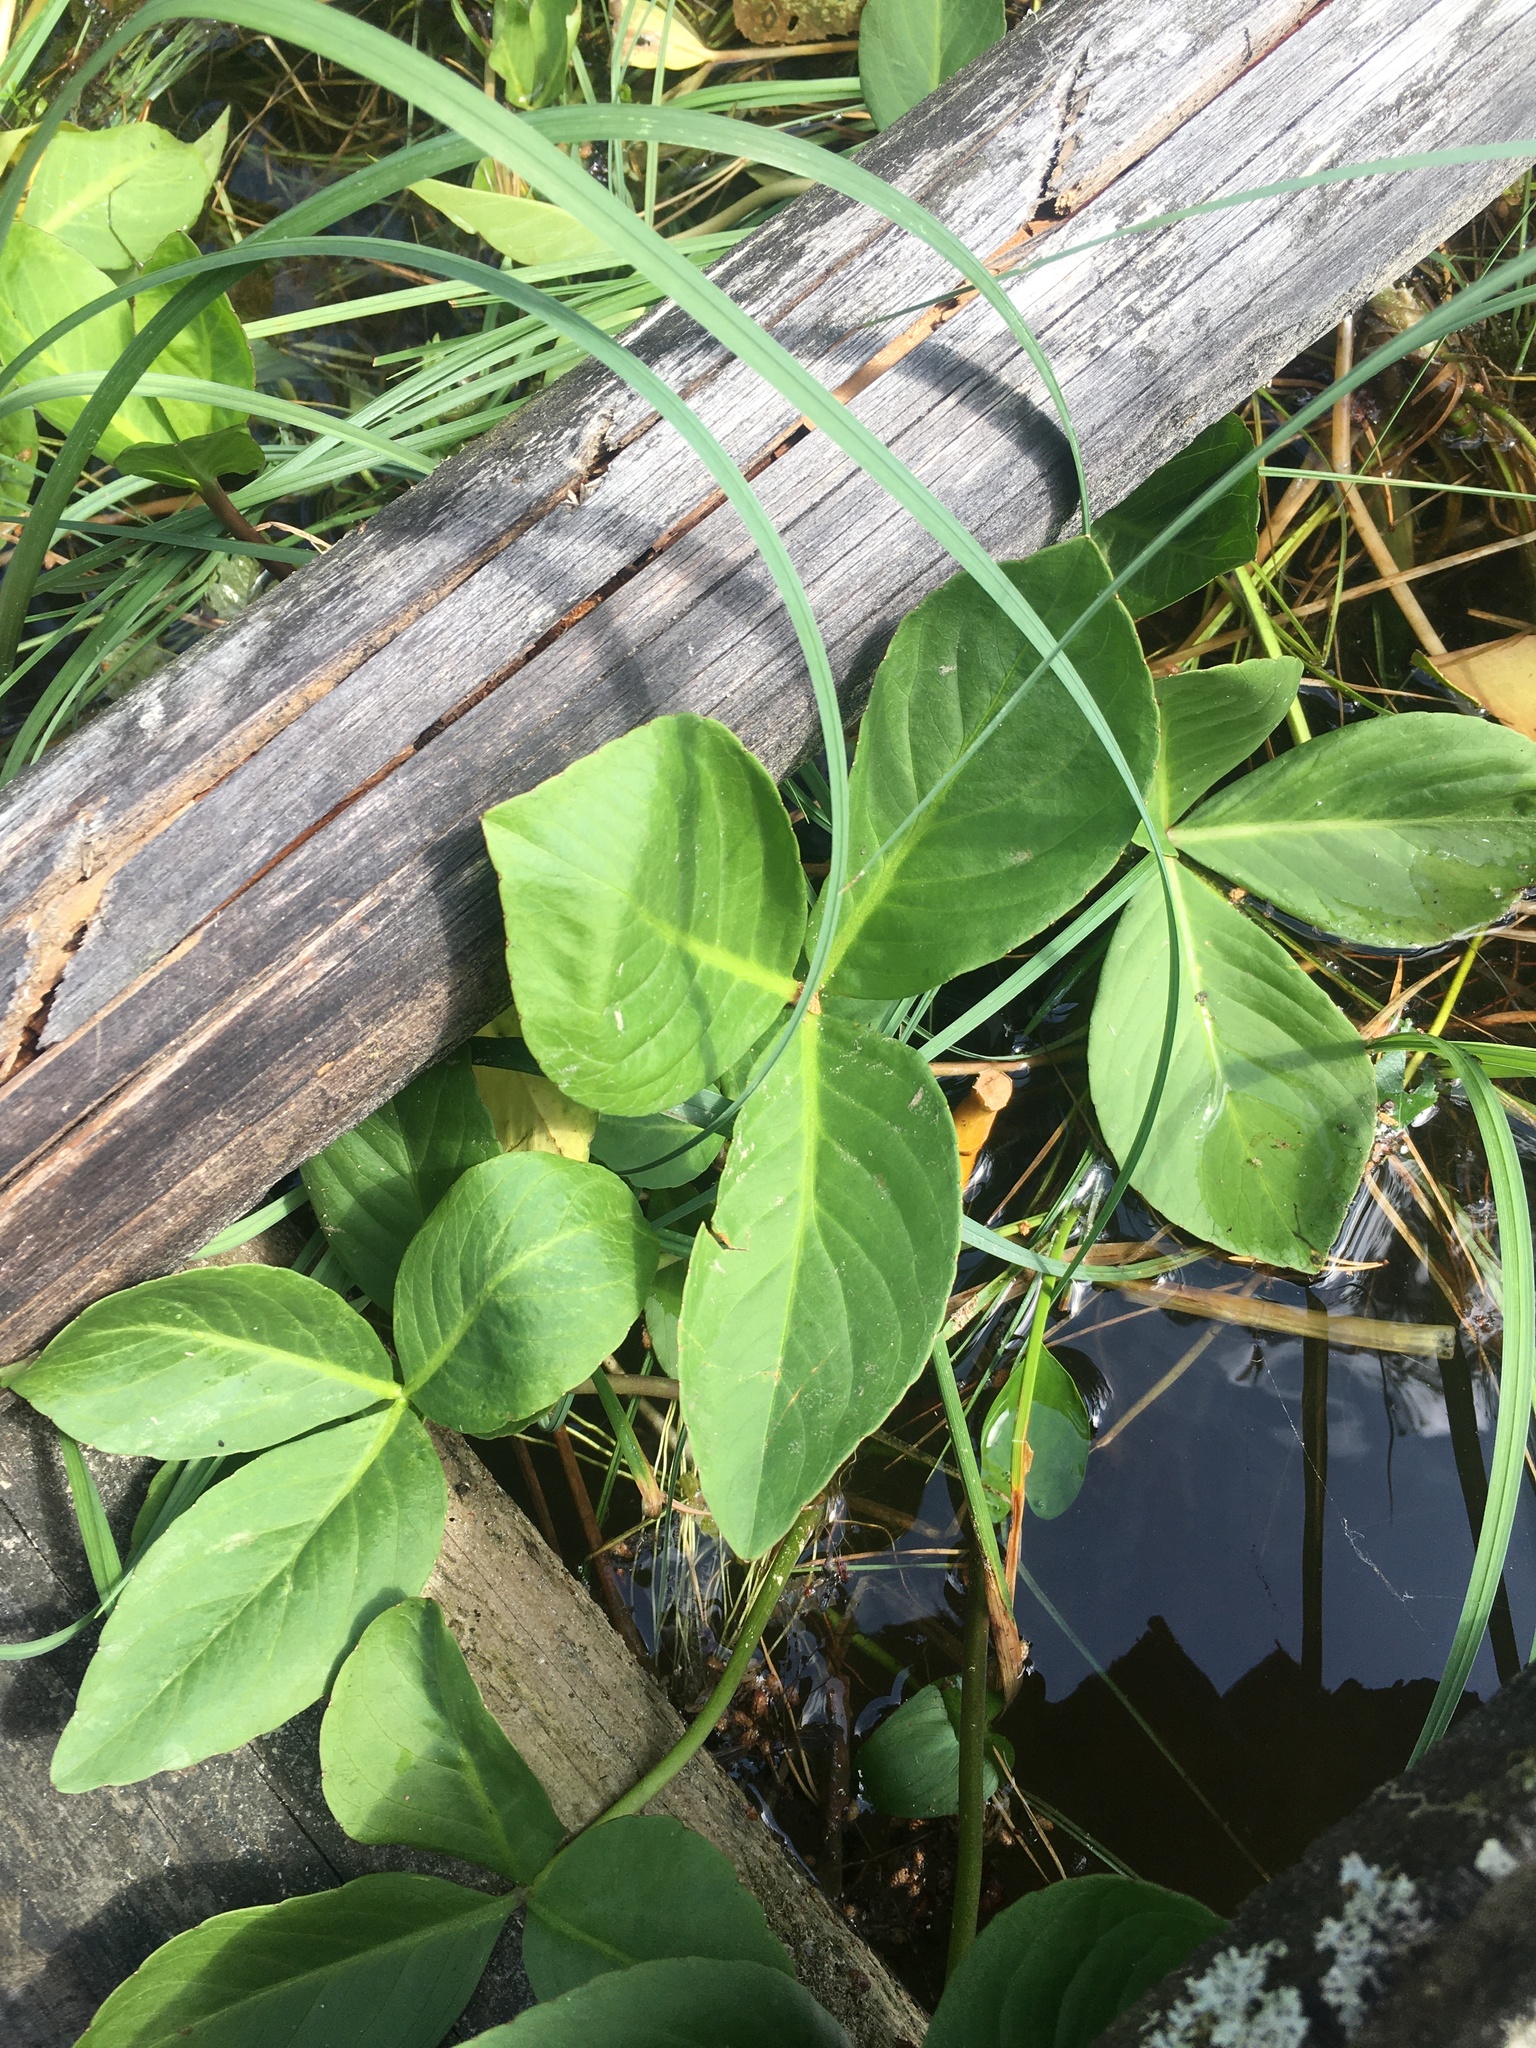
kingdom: Plantae
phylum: Tracheophyta
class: Magnoliopsida
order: Asterales
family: Menyanthaceae
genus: Menyanthes
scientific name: Menyanthes trifoliata
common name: Bogbean
